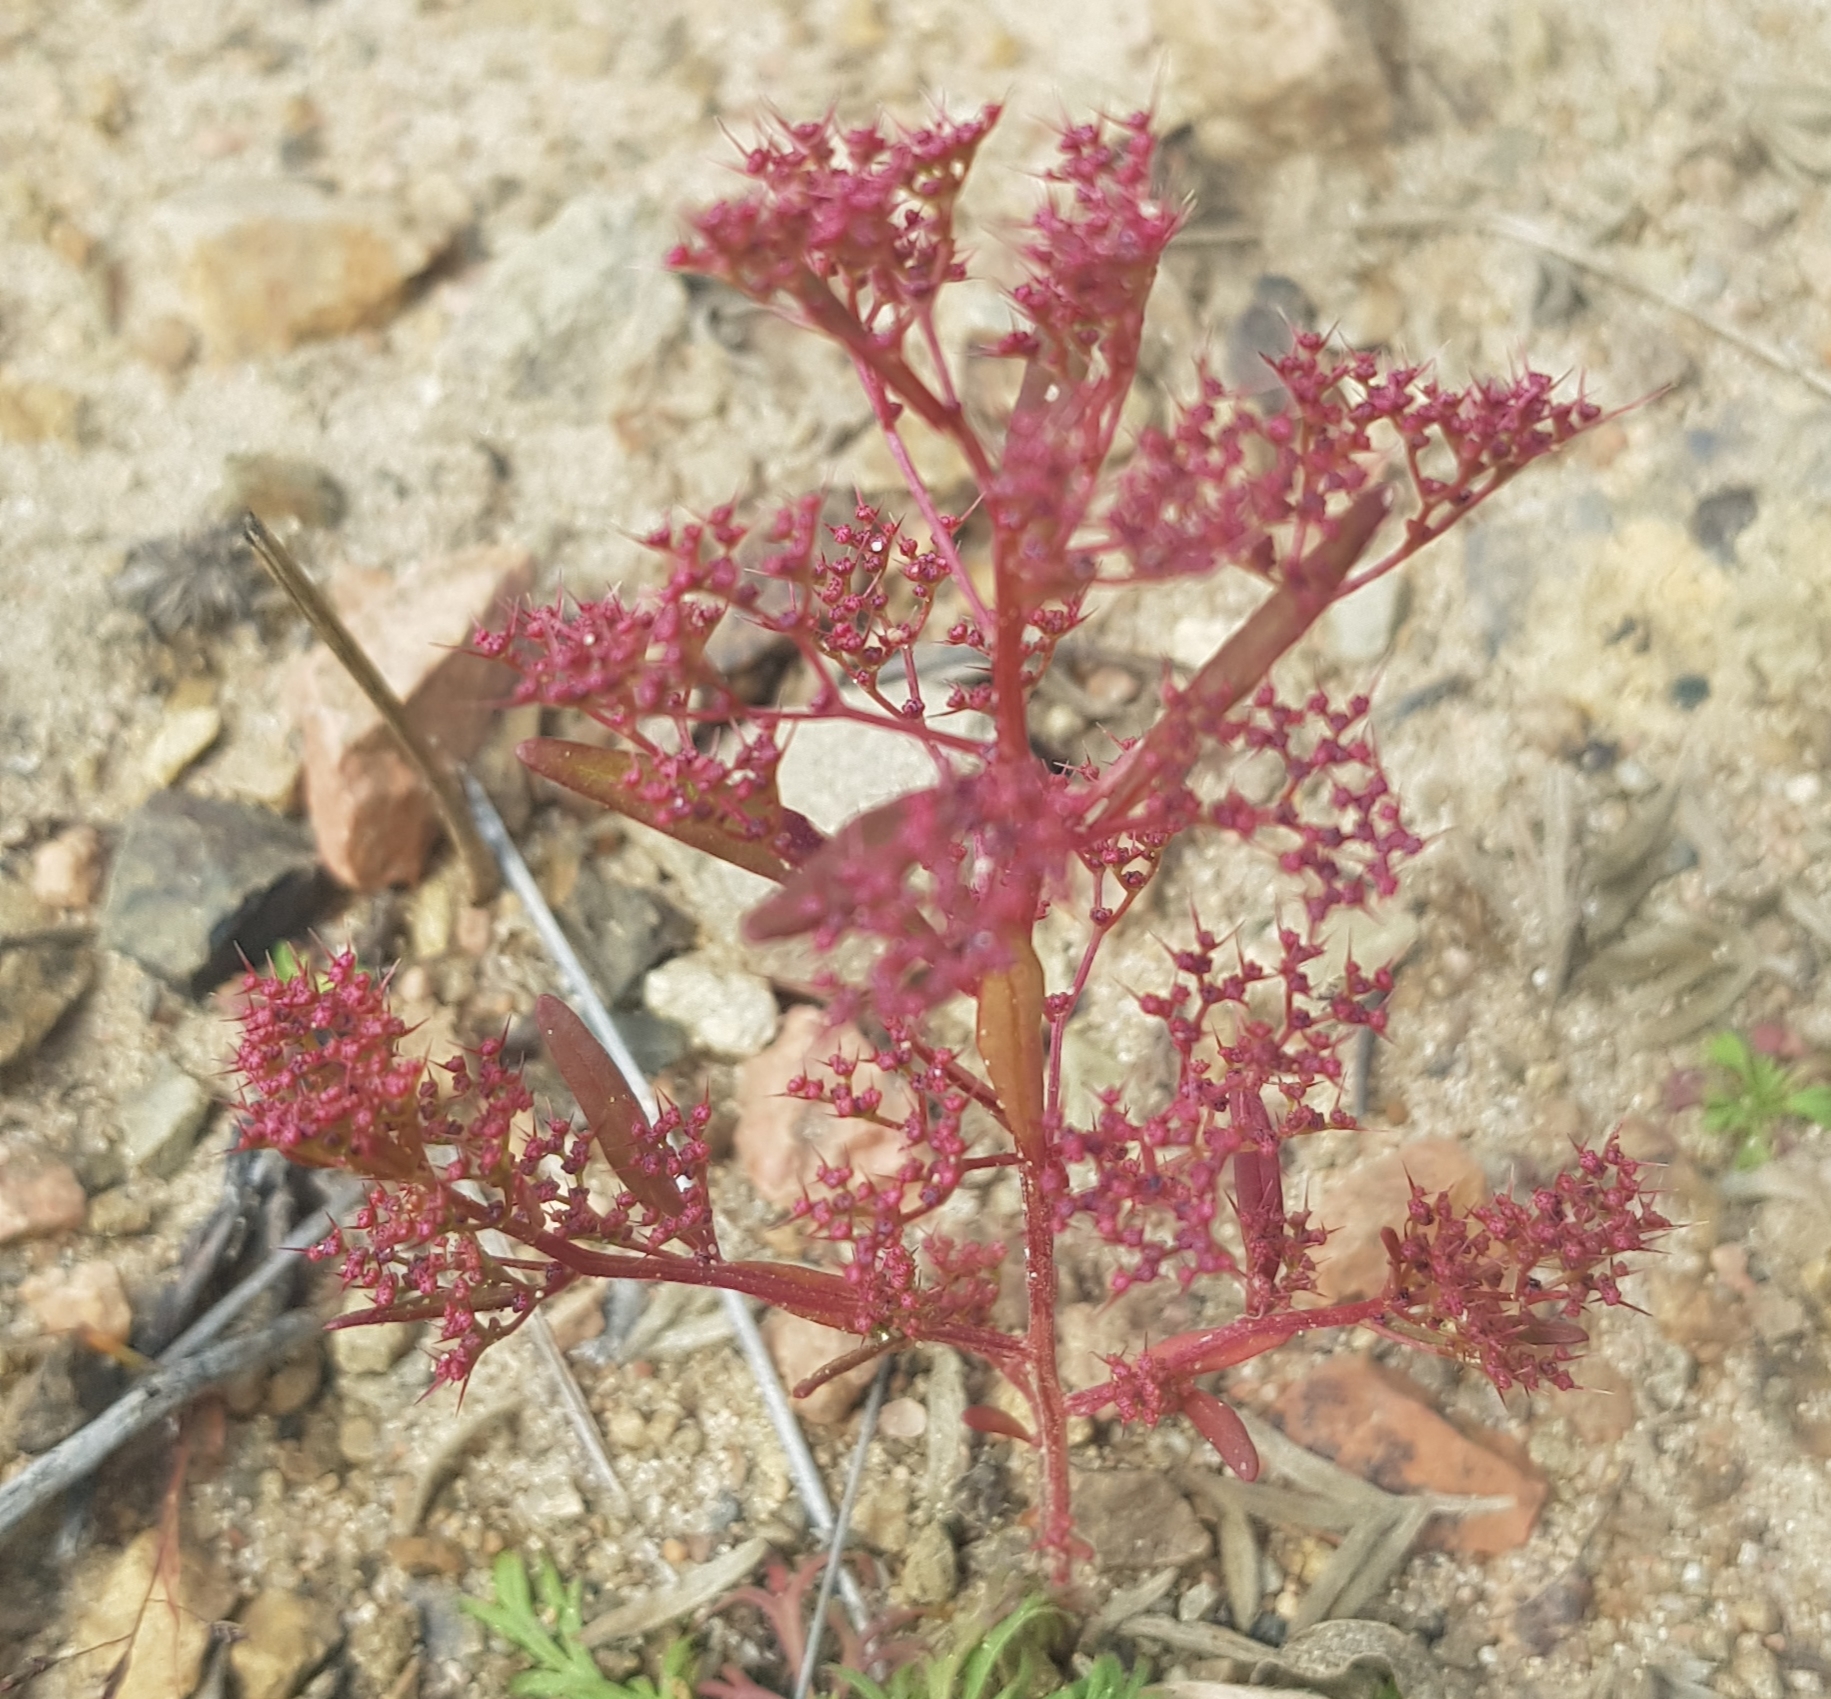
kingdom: Plantae
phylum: Tracheophyta
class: Magnoliopsida
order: Caryophyllales
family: Amaranthaceae
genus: Teloxys
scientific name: Teloxys aristata
